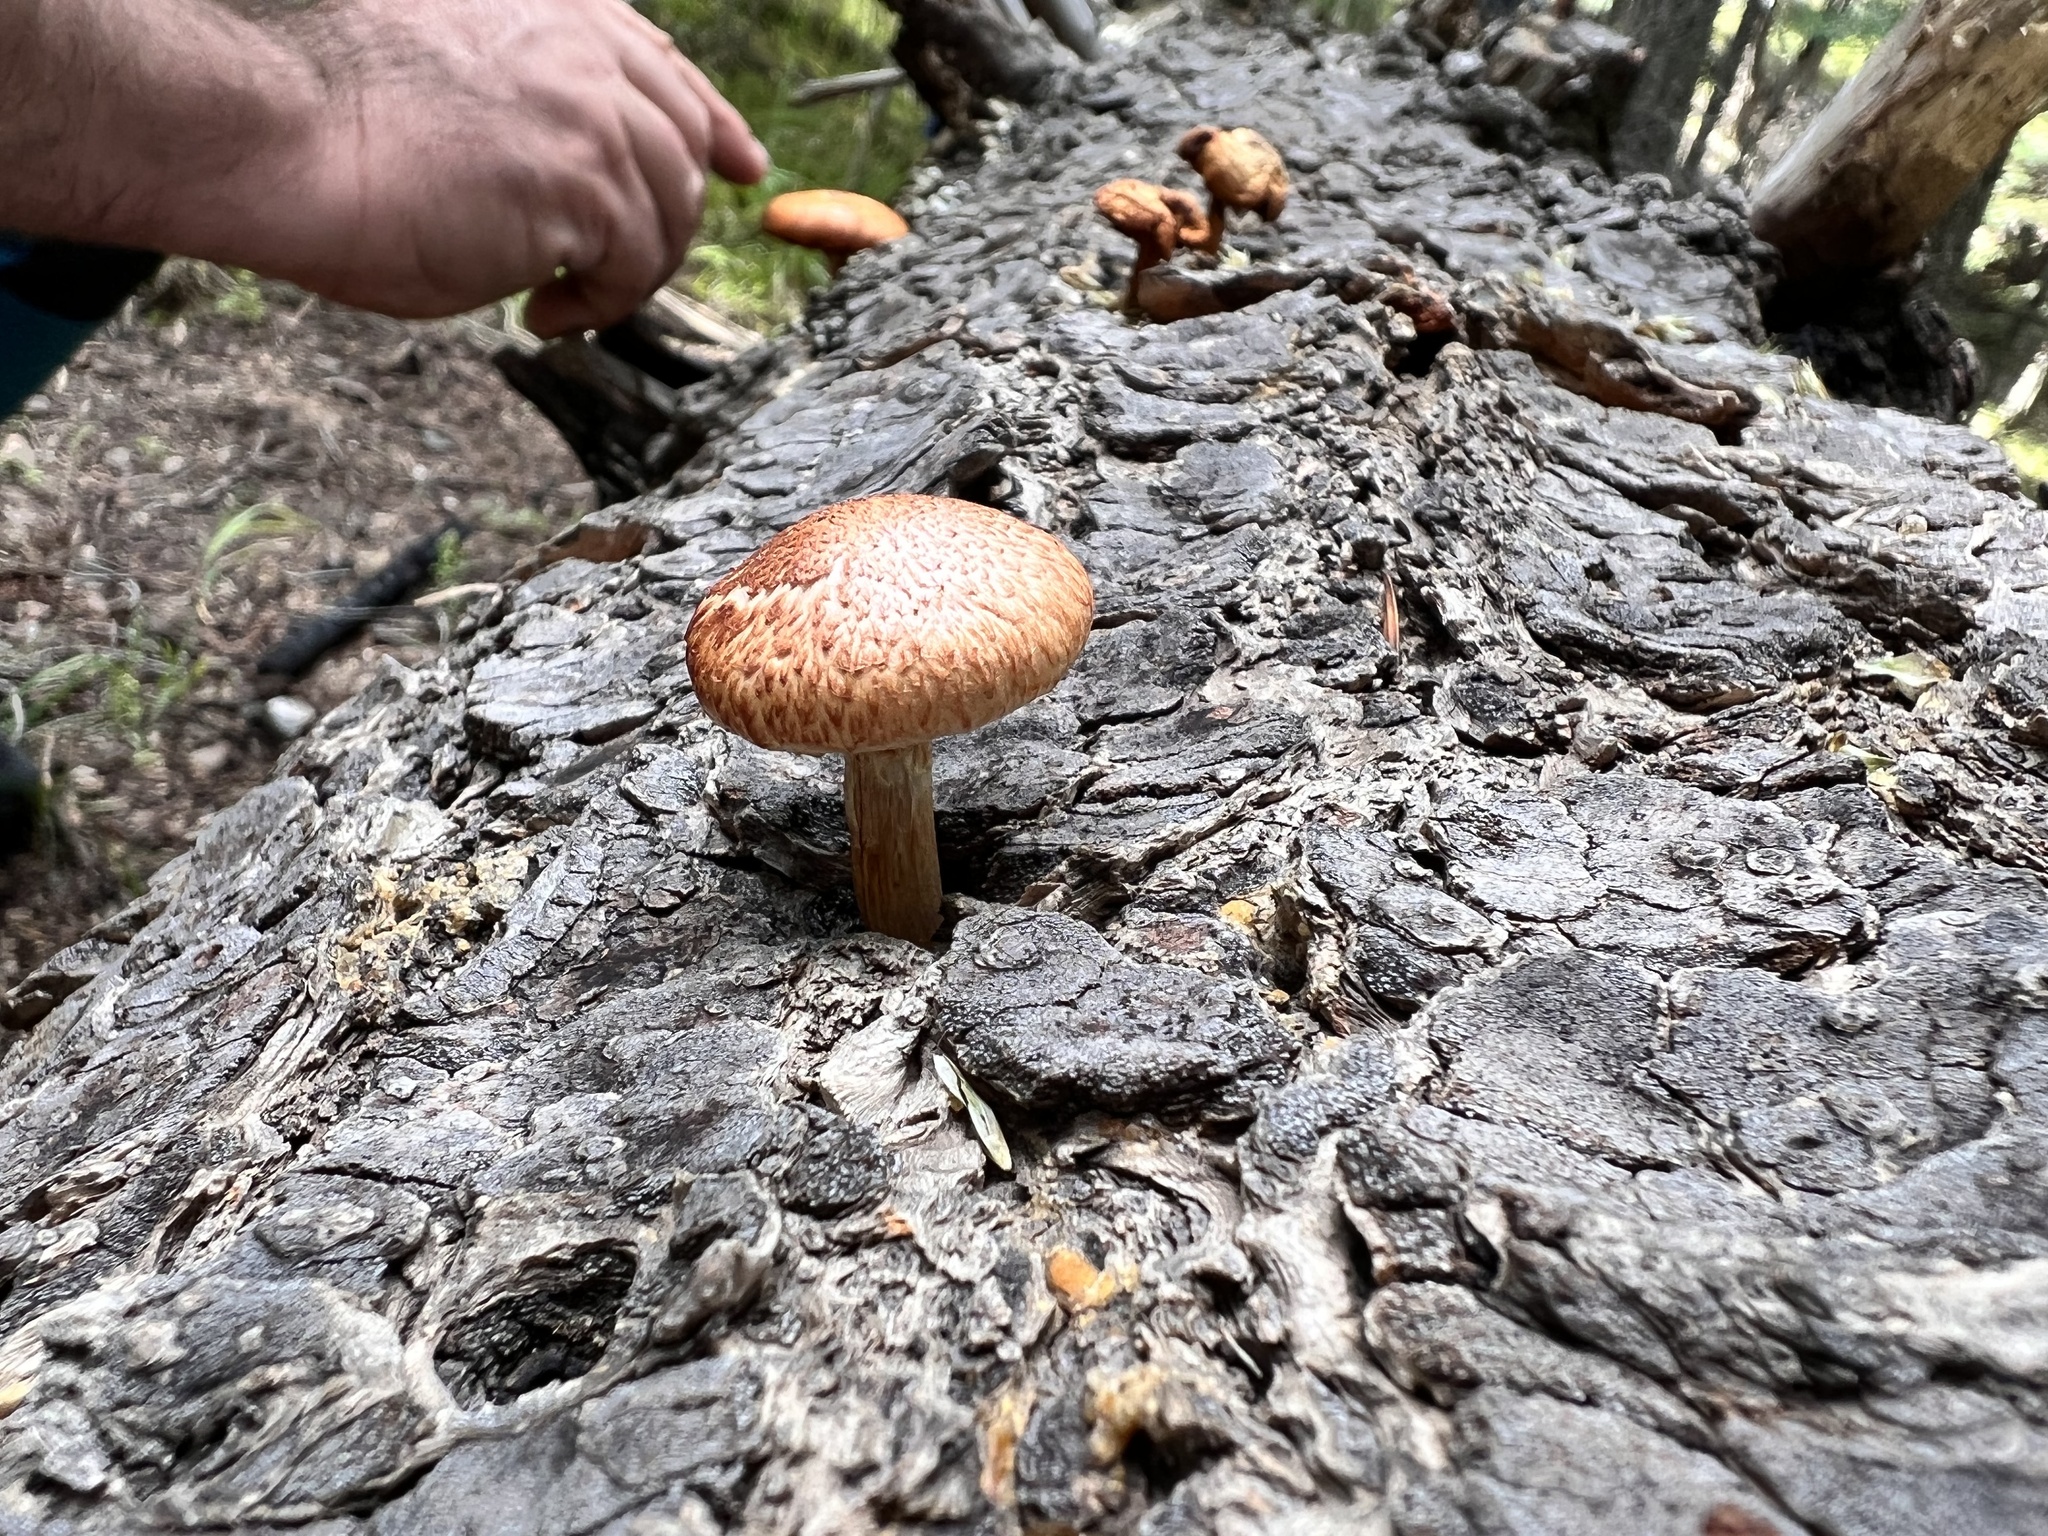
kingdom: Fungi
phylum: Basidiomycota
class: Agaricomycetes
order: Agaricales
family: Hymenogastraceae
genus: Gymnopilus
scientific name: Gymnopilus luteofolius
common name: Yellow-gilled gymnopilus
